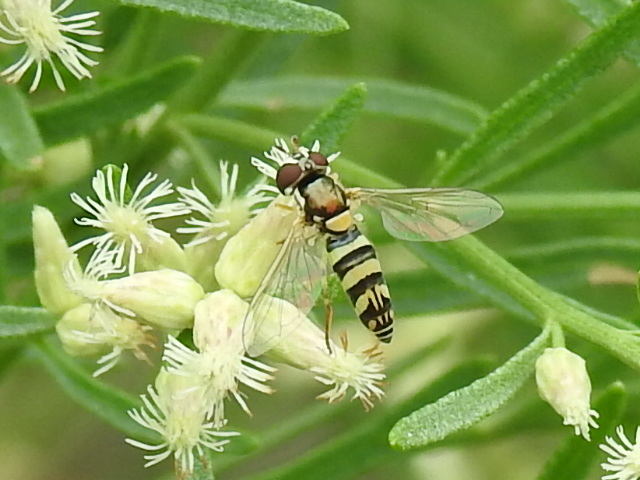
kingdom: Animalia
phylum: Arthropoda
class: Insecta
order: Diptera
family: Syrphidae
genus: Allograpta
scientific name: Allograpta exotica
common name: Syrphid fly
